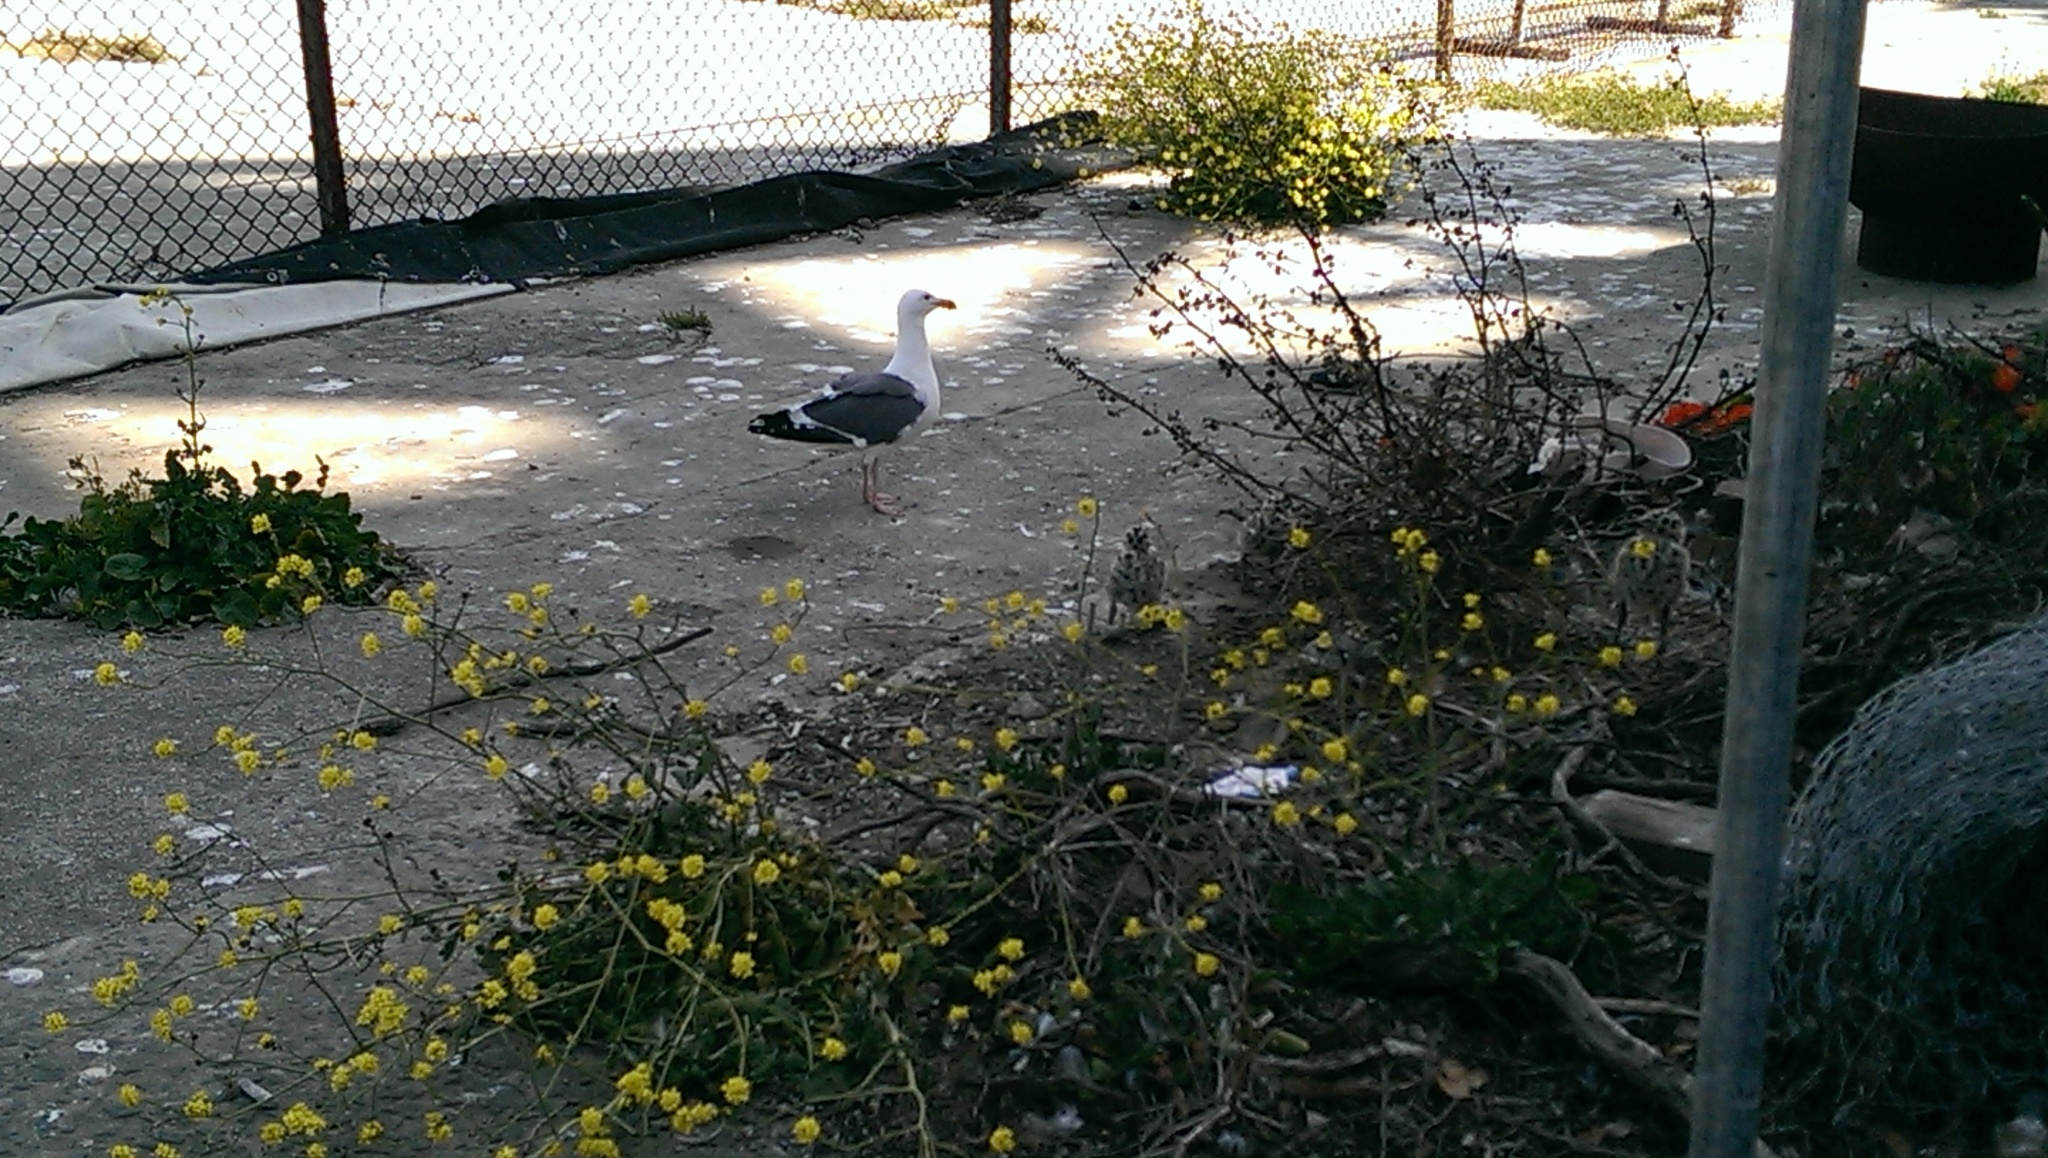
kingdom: Animalia
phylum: Chordata
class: Aves
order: Charadriiformes
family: Laridae
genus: Larus
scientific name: Larus occidentalis
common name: Western gull
